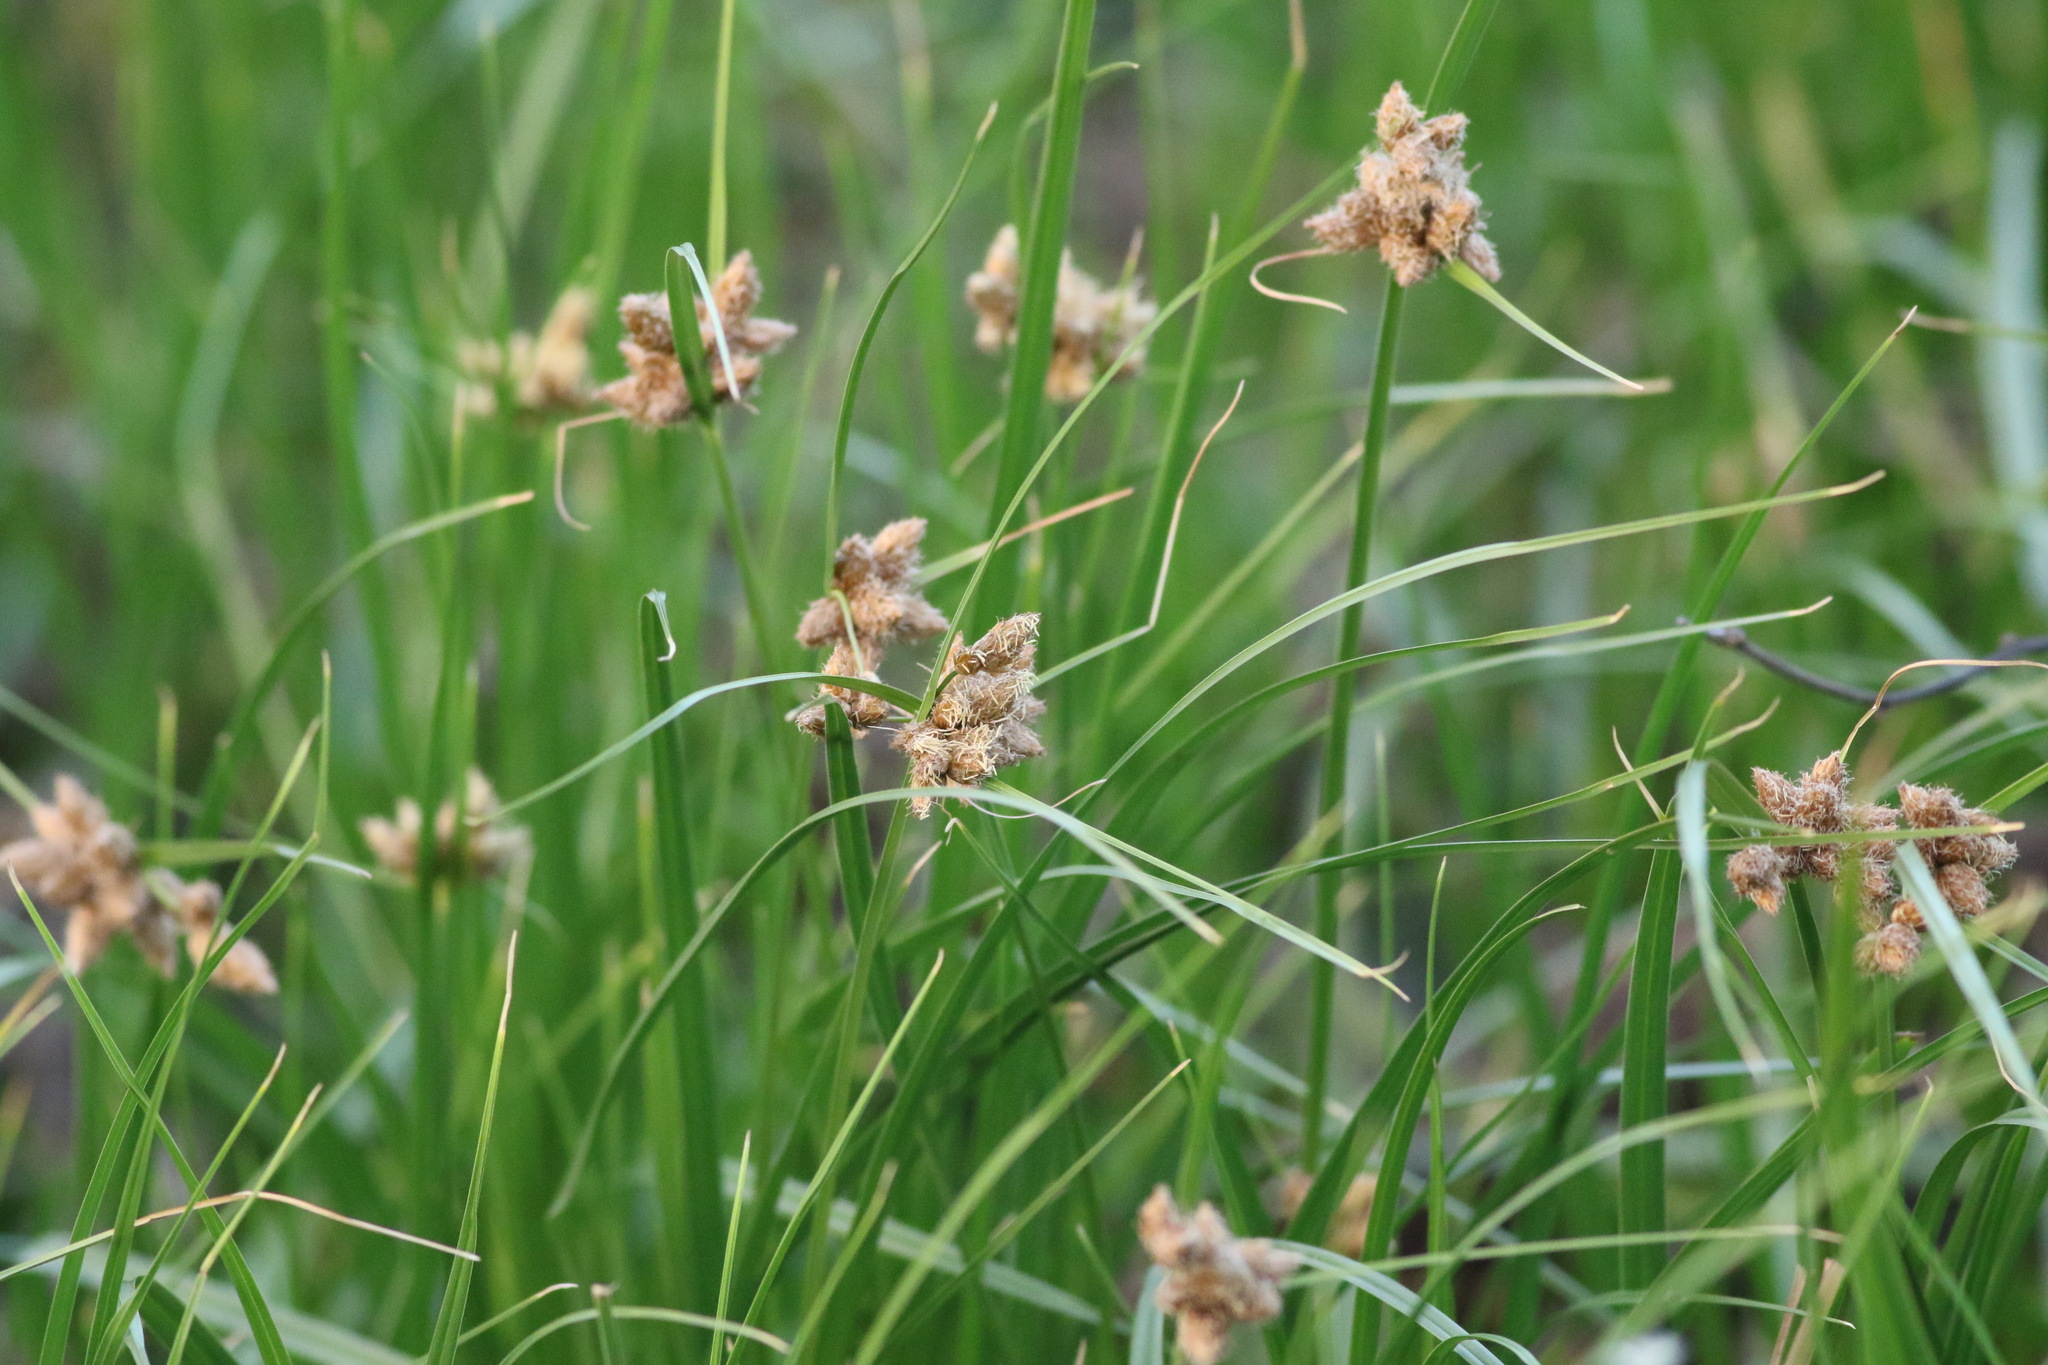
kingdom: Plantae
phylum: Tracheophyta
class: Liliopsida
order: Poales
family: Cyperaceae
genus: Bolboschoenus
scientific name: Bolboschoenus maritimus
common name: Sea club-rush
